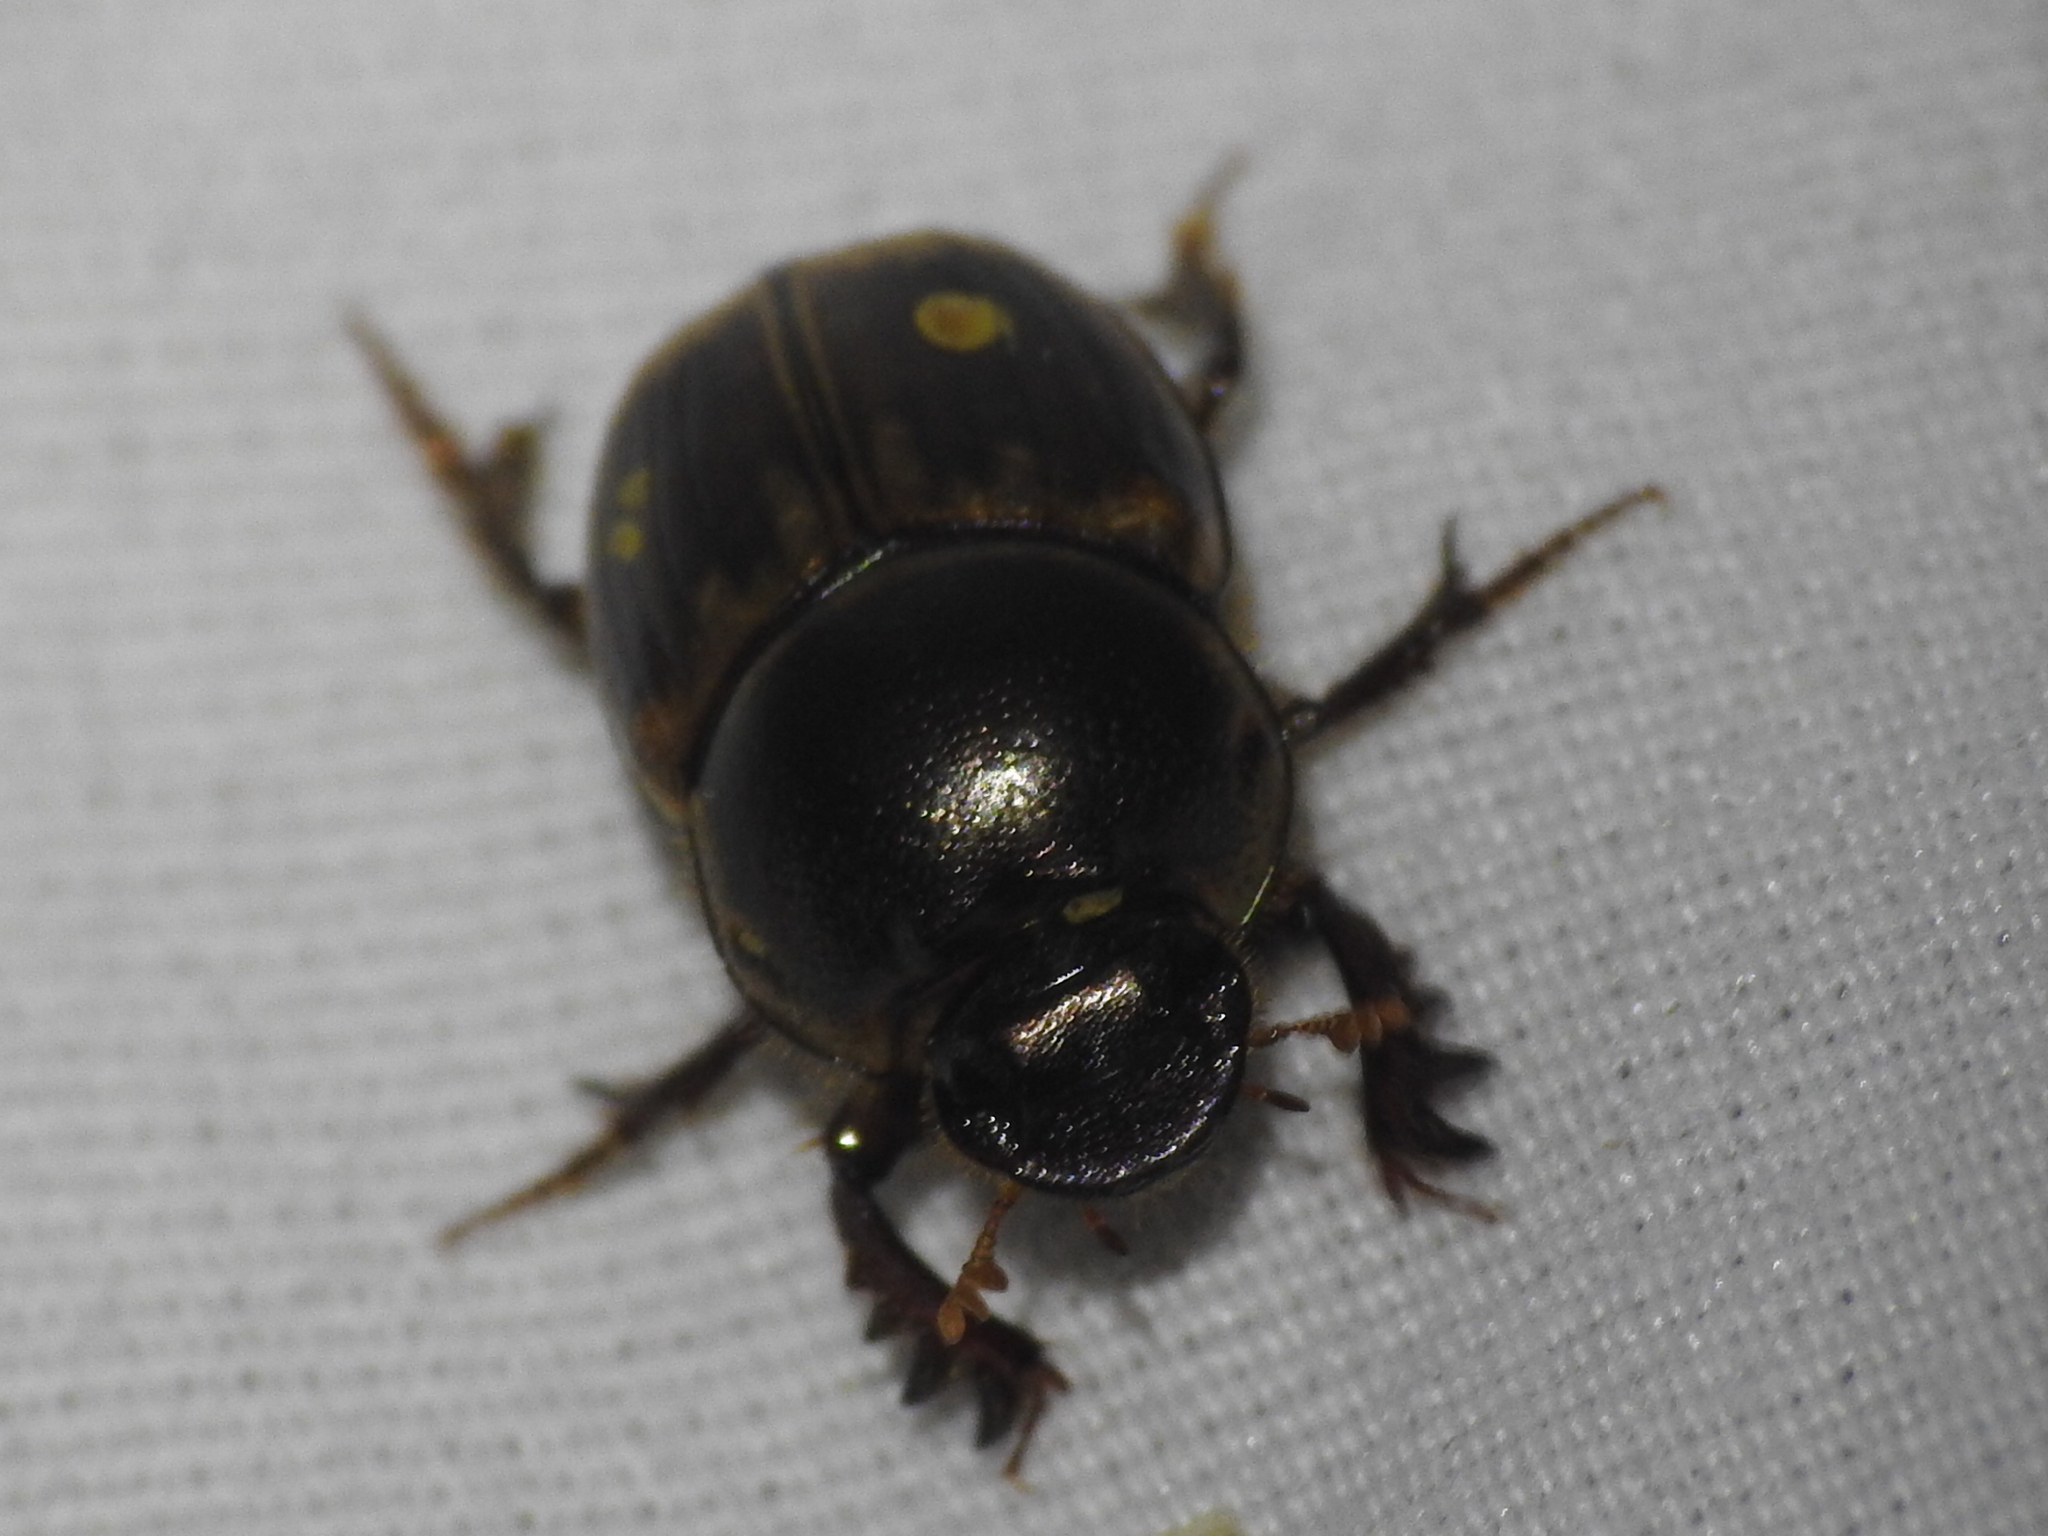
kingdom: Animalia
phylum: Arthropoda
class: Insecta
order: Coleoptera
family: Scarabaeidae
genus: Digitonthophagus
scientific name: Digitonthophagus gazella
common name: Brown dung beetle
